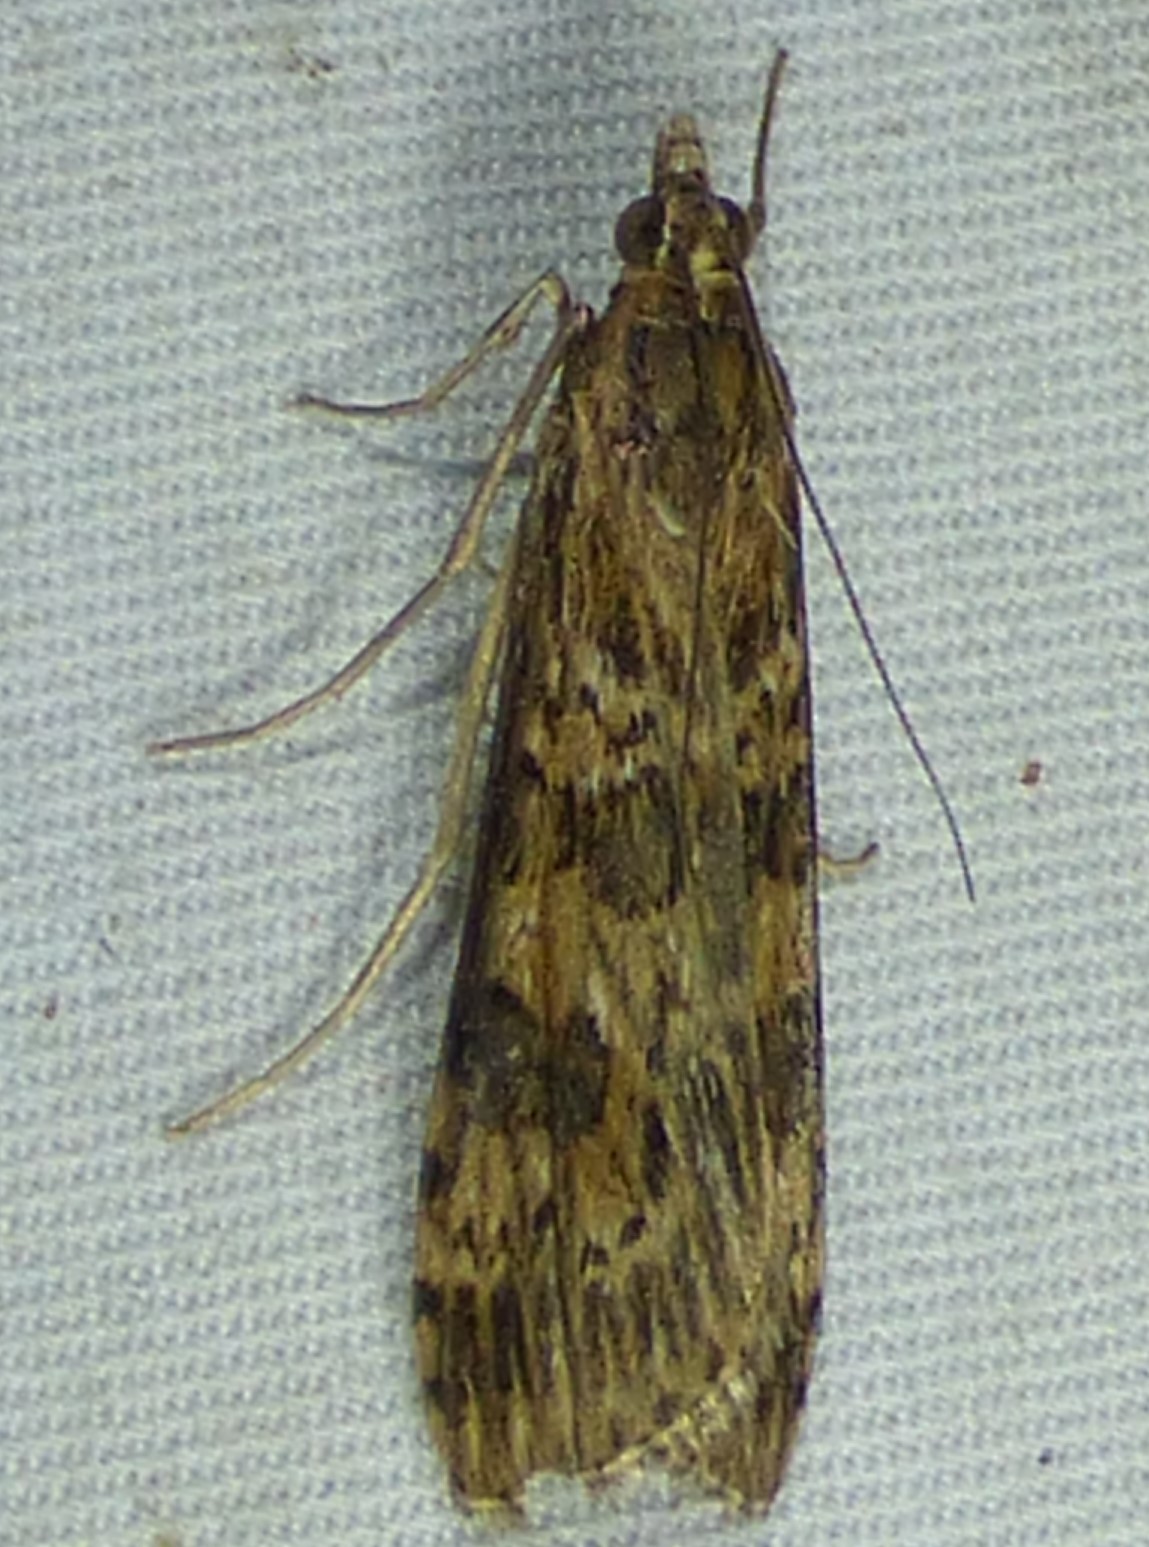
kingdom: Animalia
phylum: Arthropoda
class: Insecta
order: Lepidoptera
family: Crambidae
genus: Nomophila
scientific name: Nomophila nearctica
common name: American rush veneer
